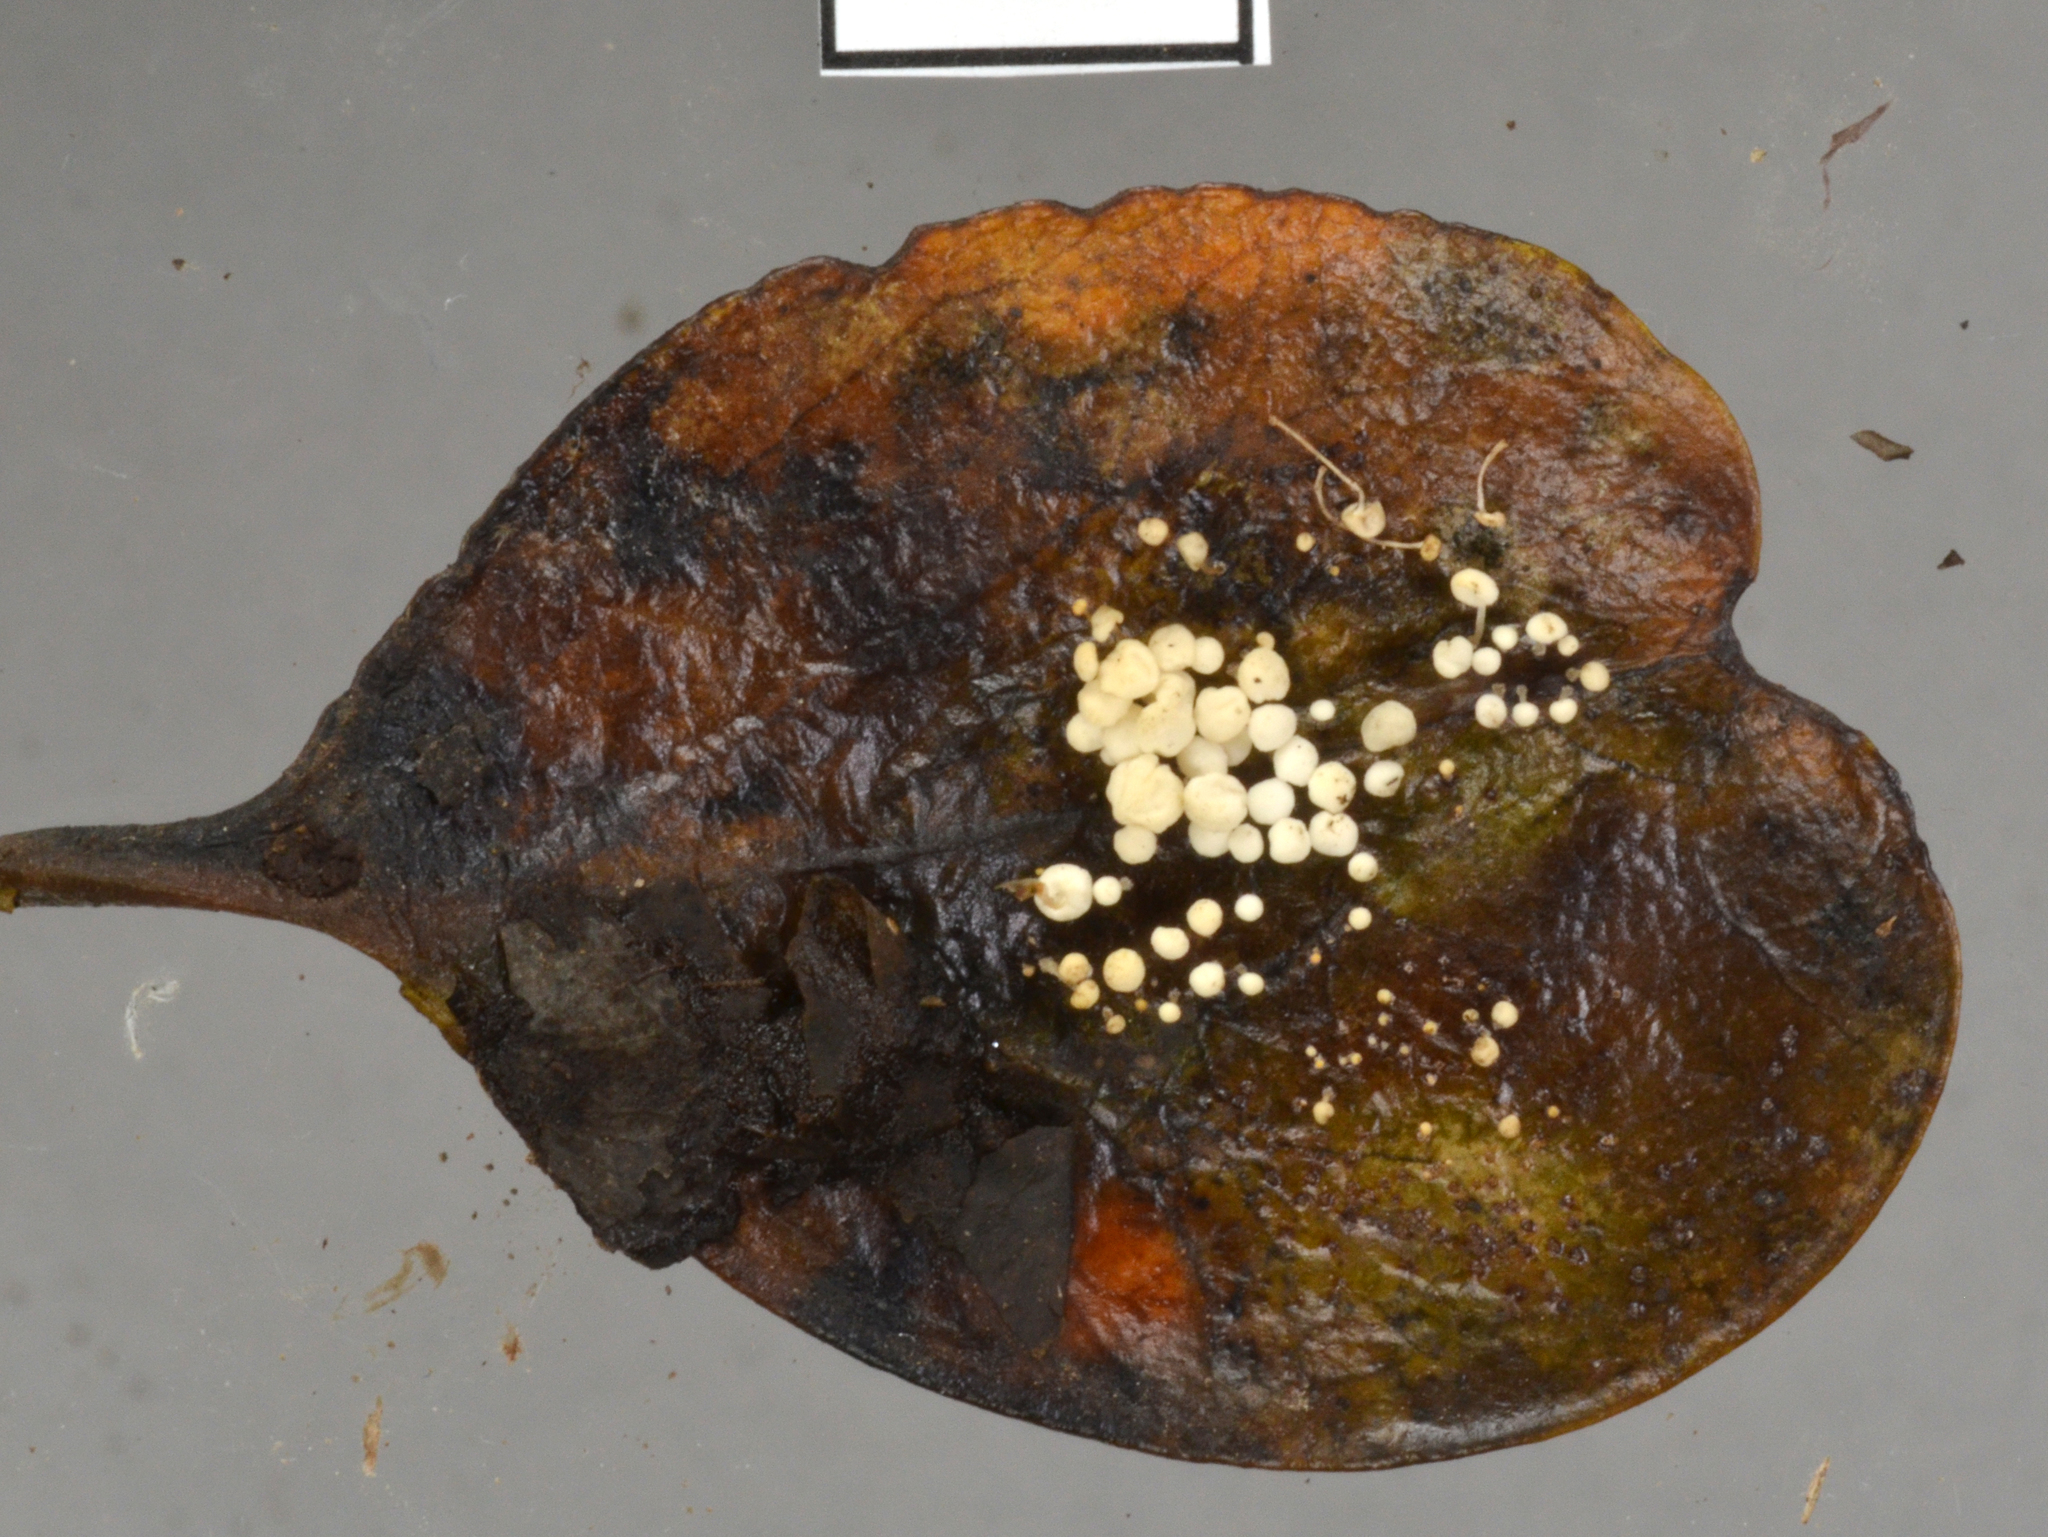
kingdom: Fungi
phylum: Basidiomycota
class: Agaricomycetes
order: Agaricales
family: Physalacriaceae
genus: Physalacria
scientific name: Physalacria stilboidea
